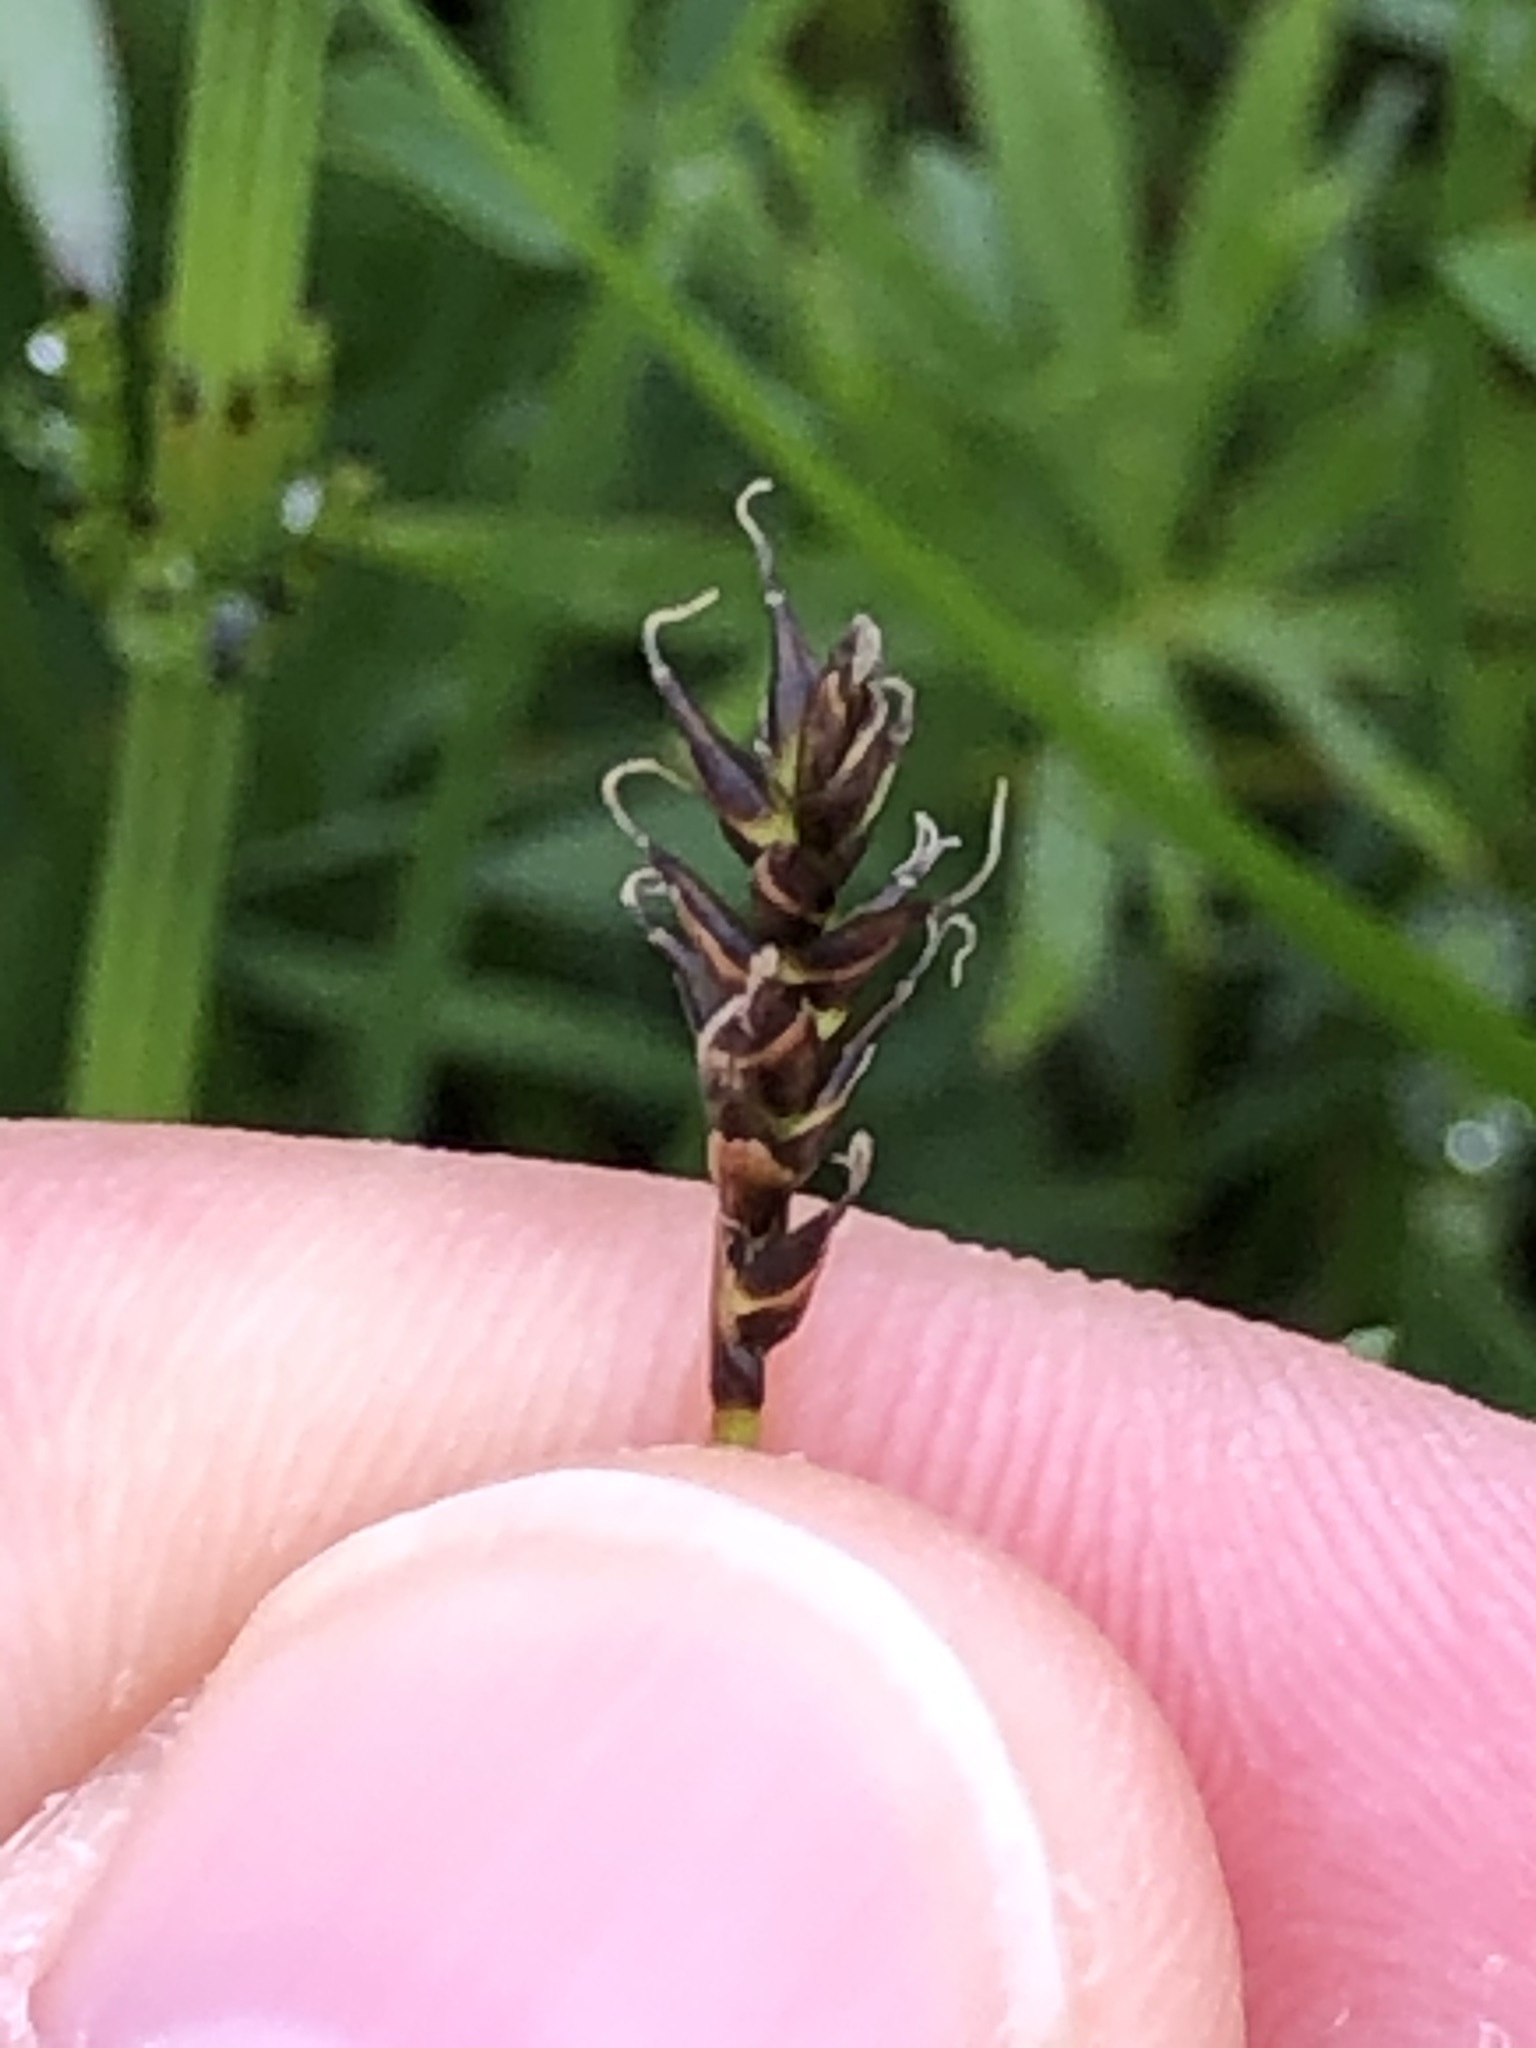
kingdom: Plantae
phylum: Tracheophyta
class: Liliopsida
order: Poales
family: Cyperaceae
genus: Carex
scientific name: Carex davalliana
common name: Davall's sedge
